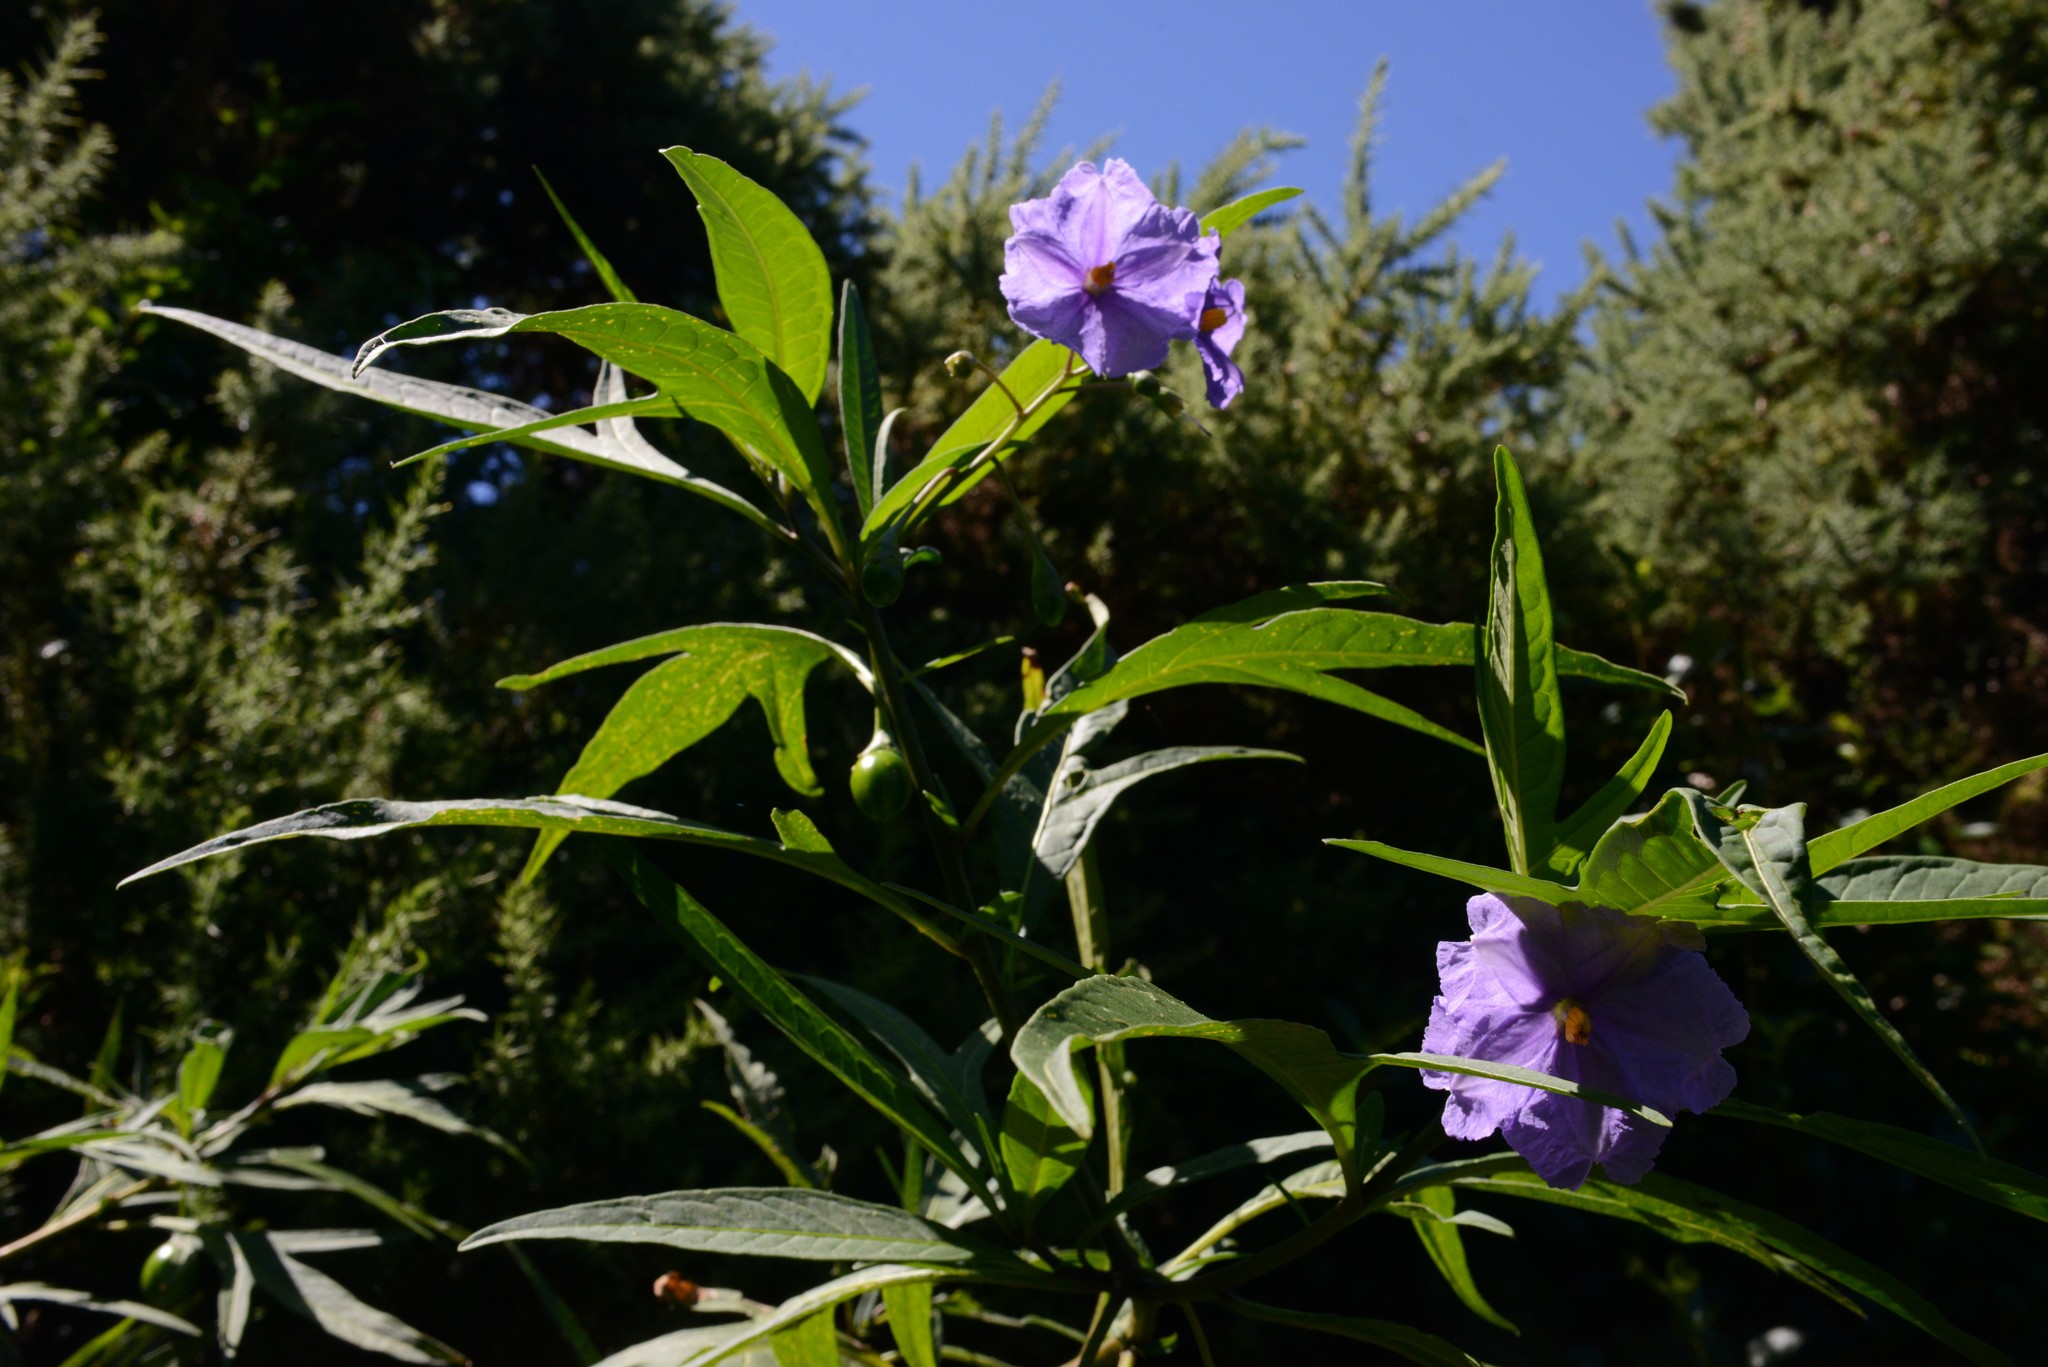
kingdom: Plantae
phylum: Tracheophyta
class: Magnoliopsida
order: Solanales
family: Solanaceae
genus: Solanum
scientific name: Solanum laciniatum
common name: Kangaroo-apple
